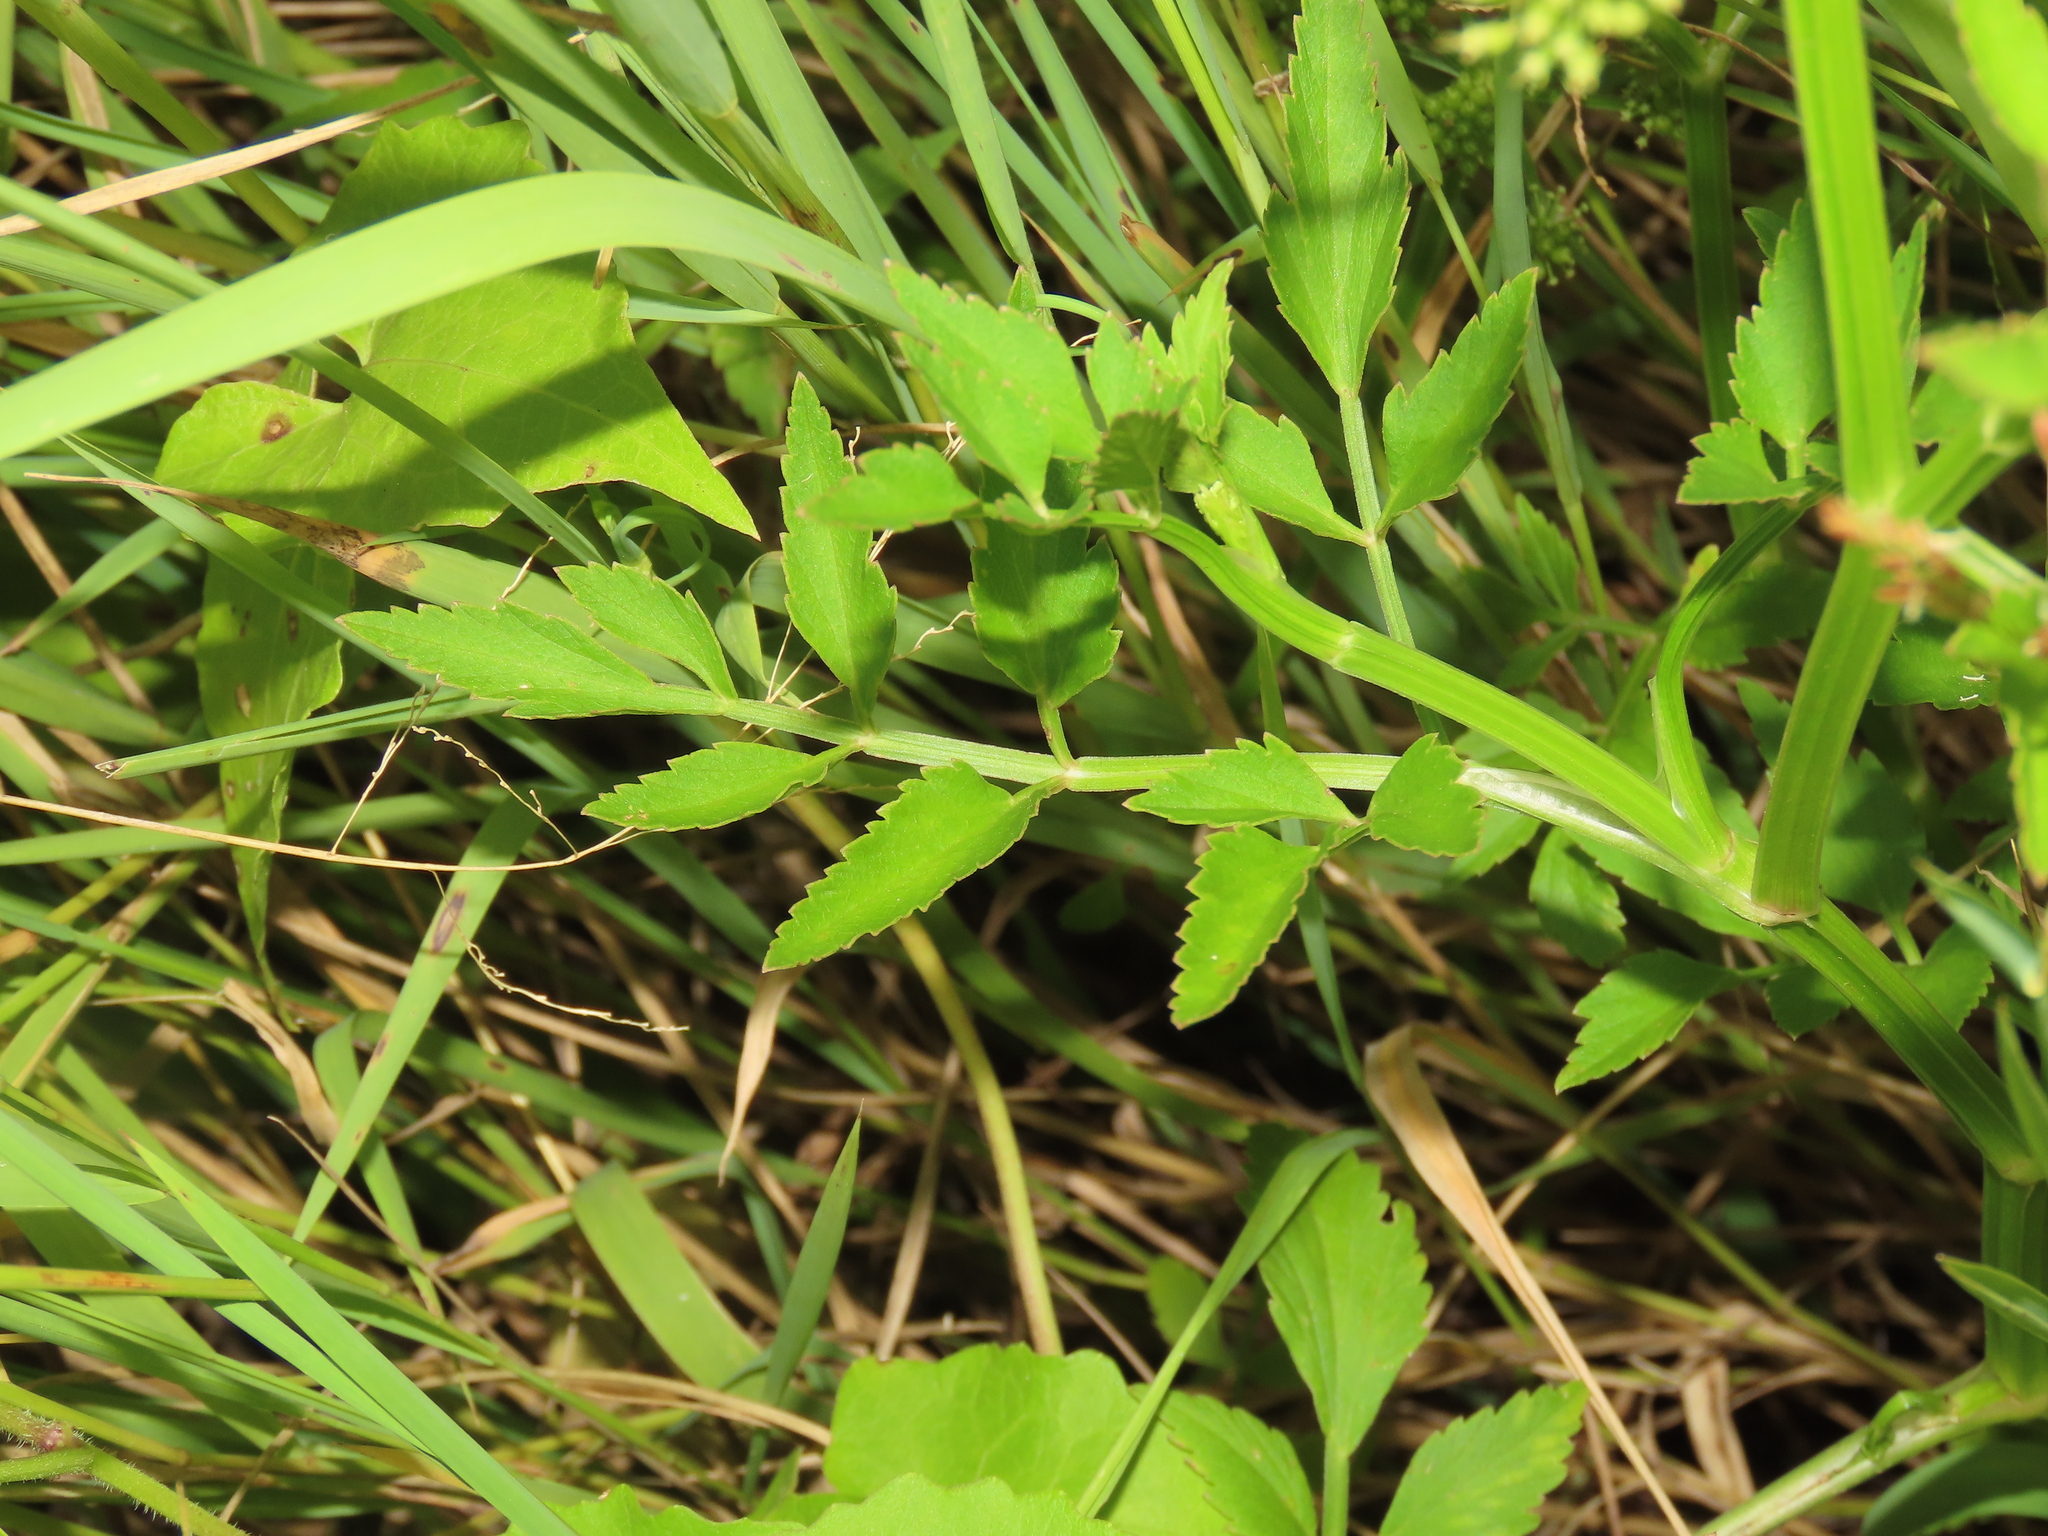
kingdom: Plantae
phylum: Tracheophyta
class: Magnoliopsida
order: Apiales
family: Apiaceae
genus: Oenanthe
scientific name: Oenanthe javanica
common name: Java water-dropwort
